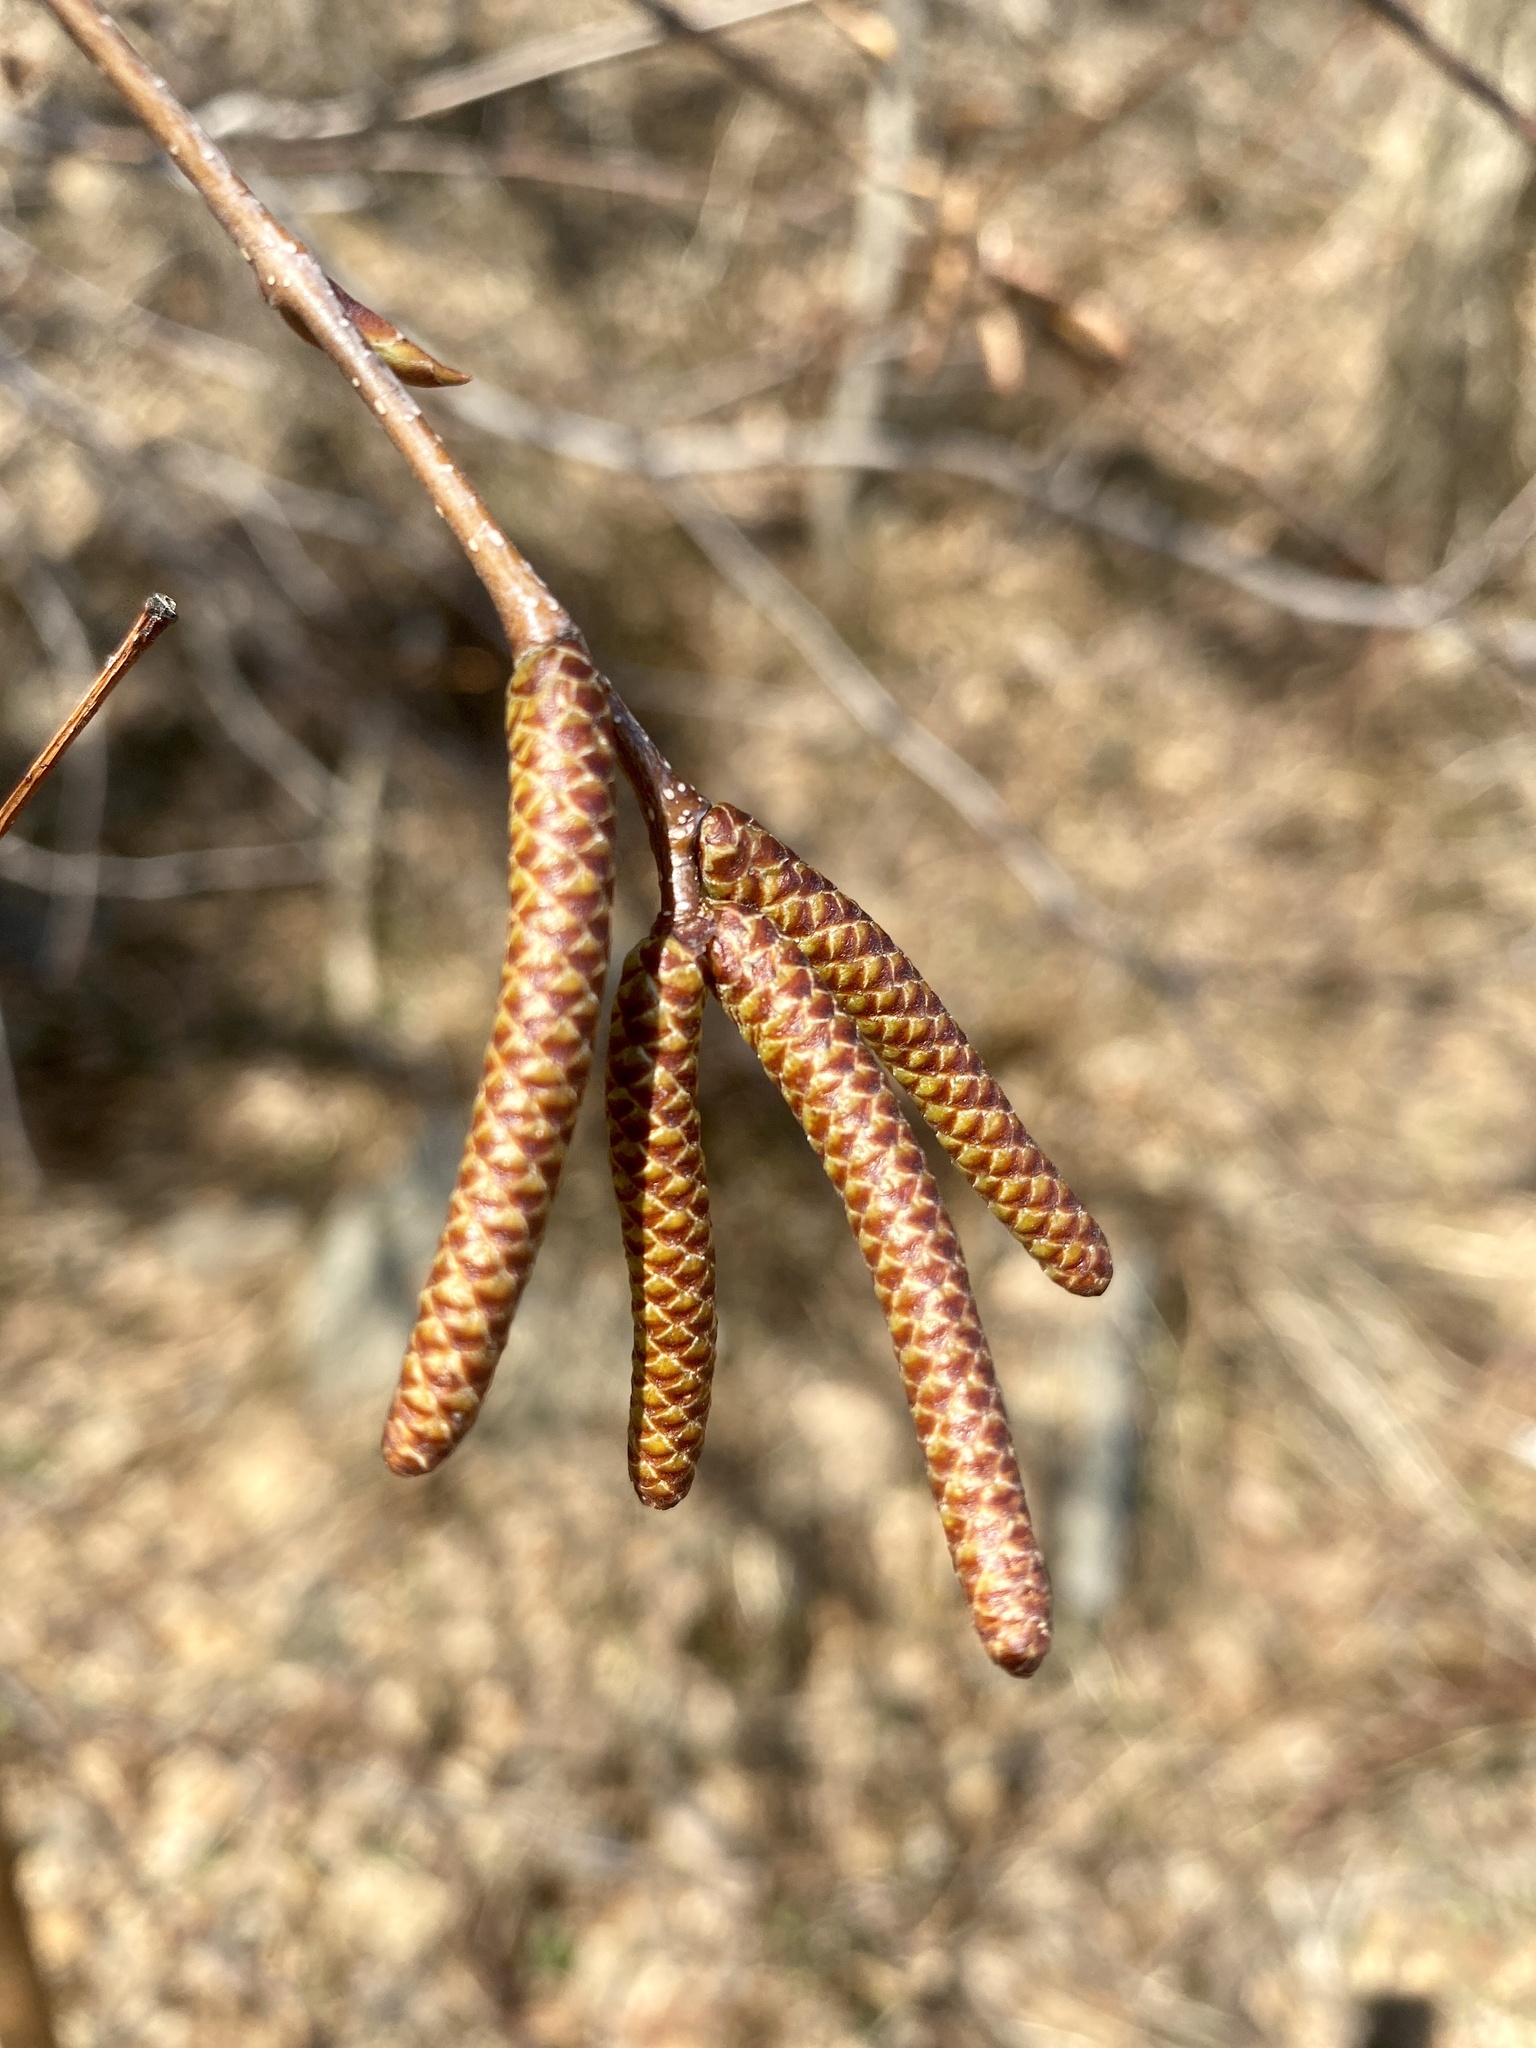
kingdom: Plantae
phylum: Tracheophyta
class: Magnoliopsida
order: Fagales
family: Betulaceae
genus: Betula
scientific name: Betula lenta
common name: Black birch
